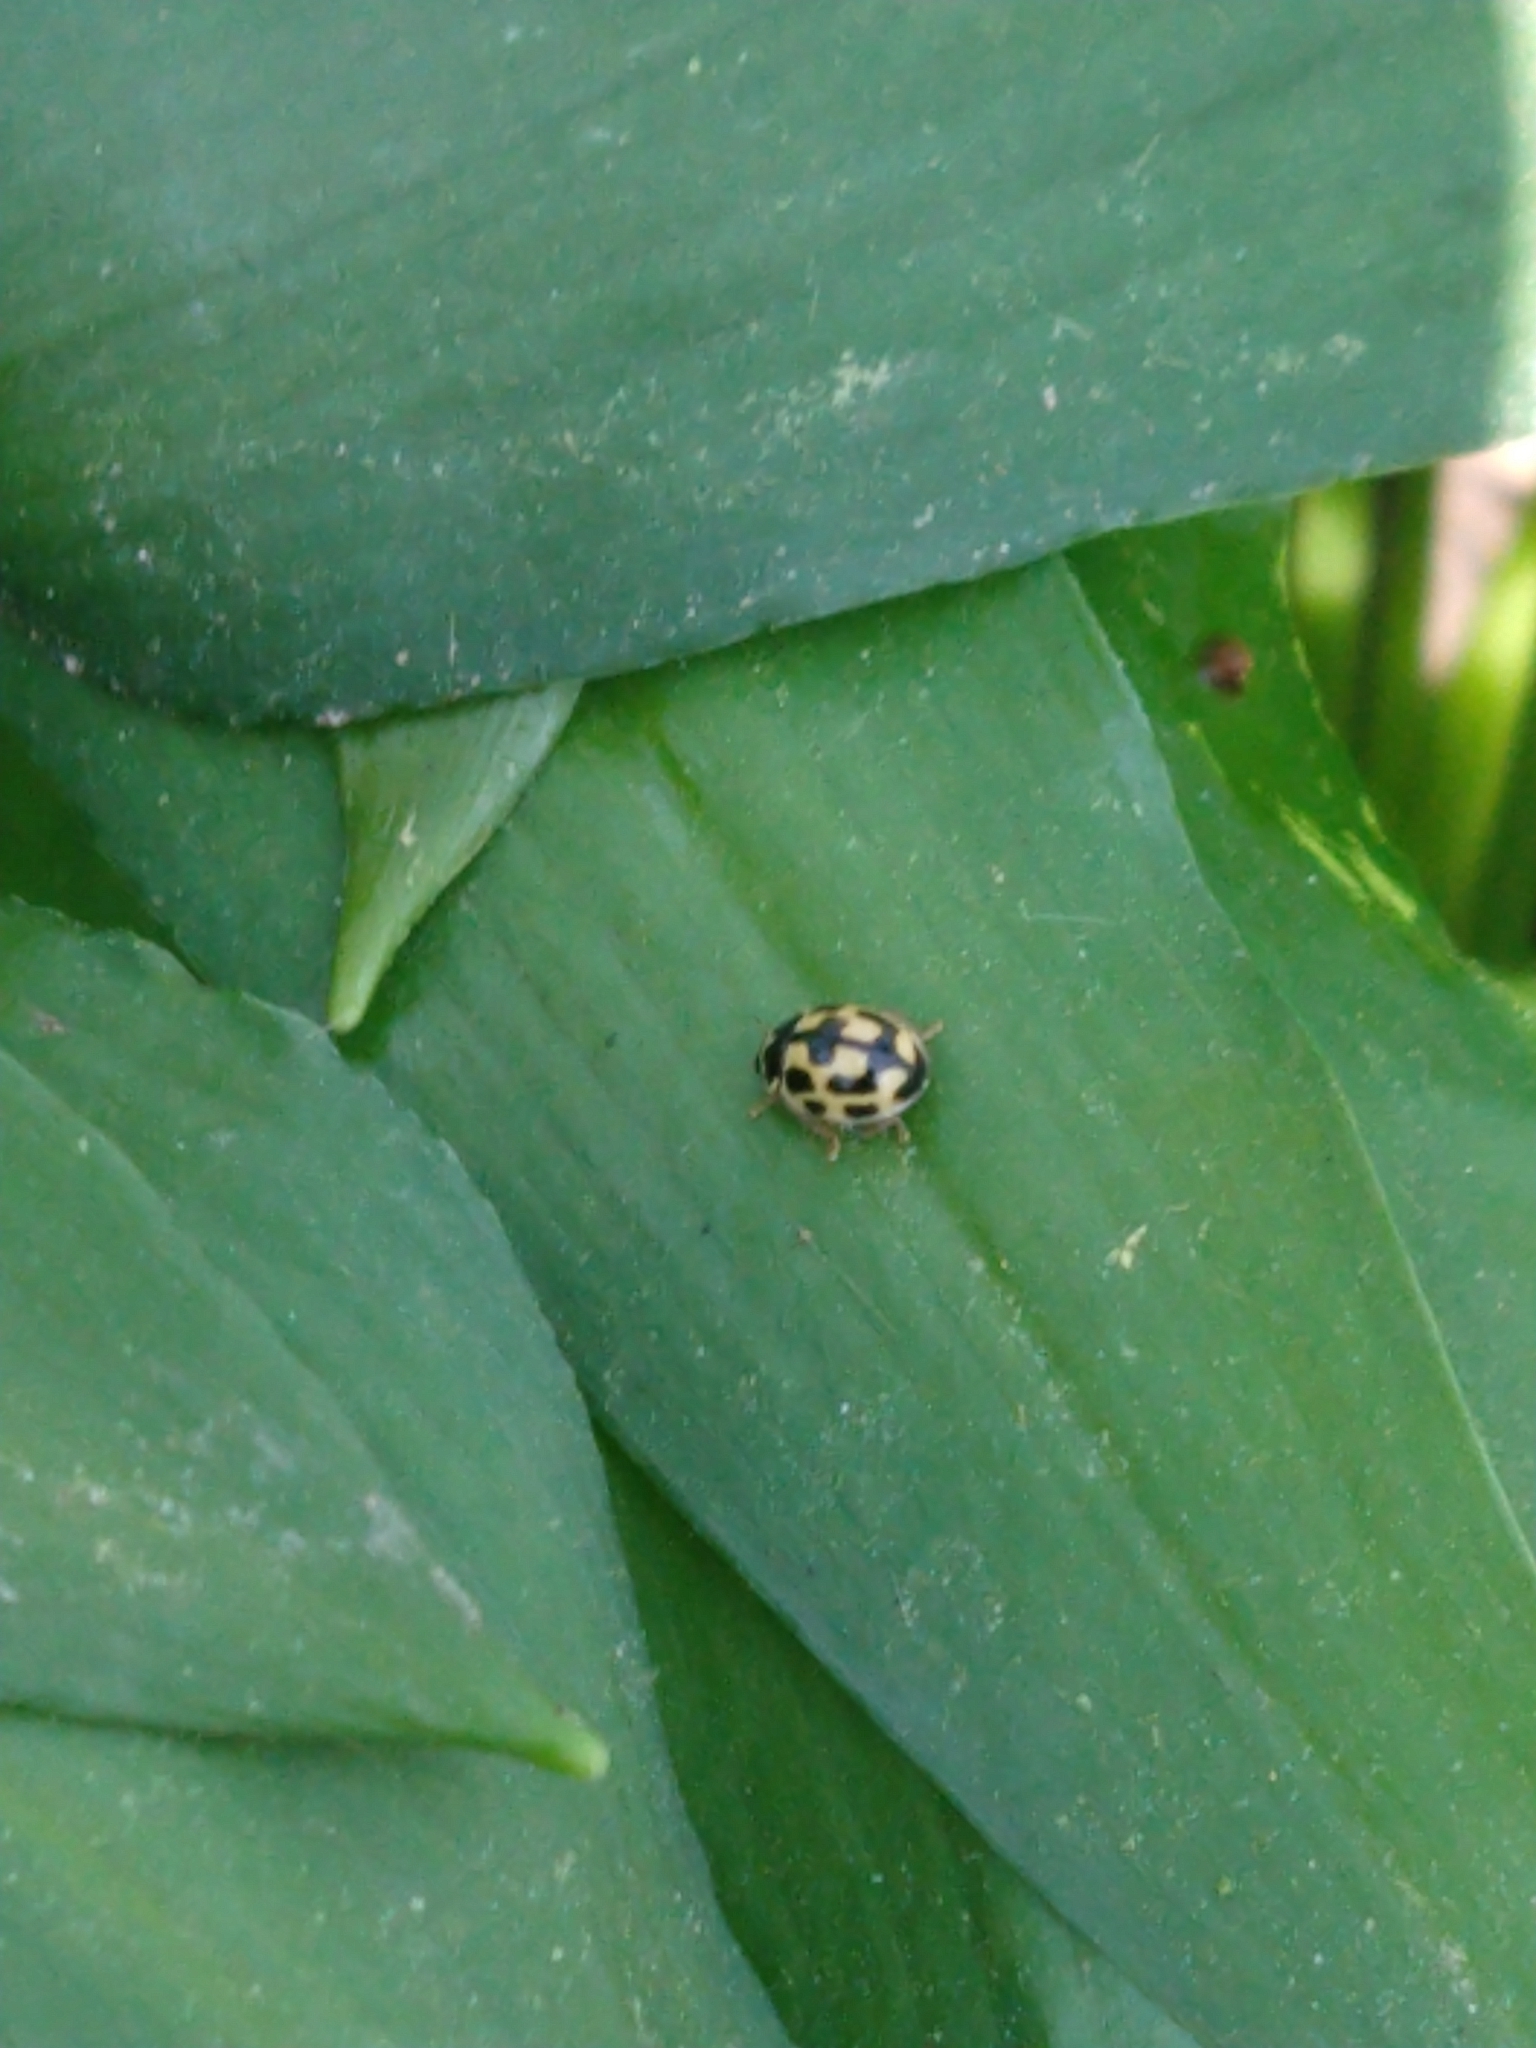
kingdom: Animalia
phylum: Arthropoda
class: Insecta
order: Coleoptera
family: Coccinellidae
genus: Propylaea
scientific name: Propylaea quatuordecimpunctata
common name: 14-spotted ladybird beetle
